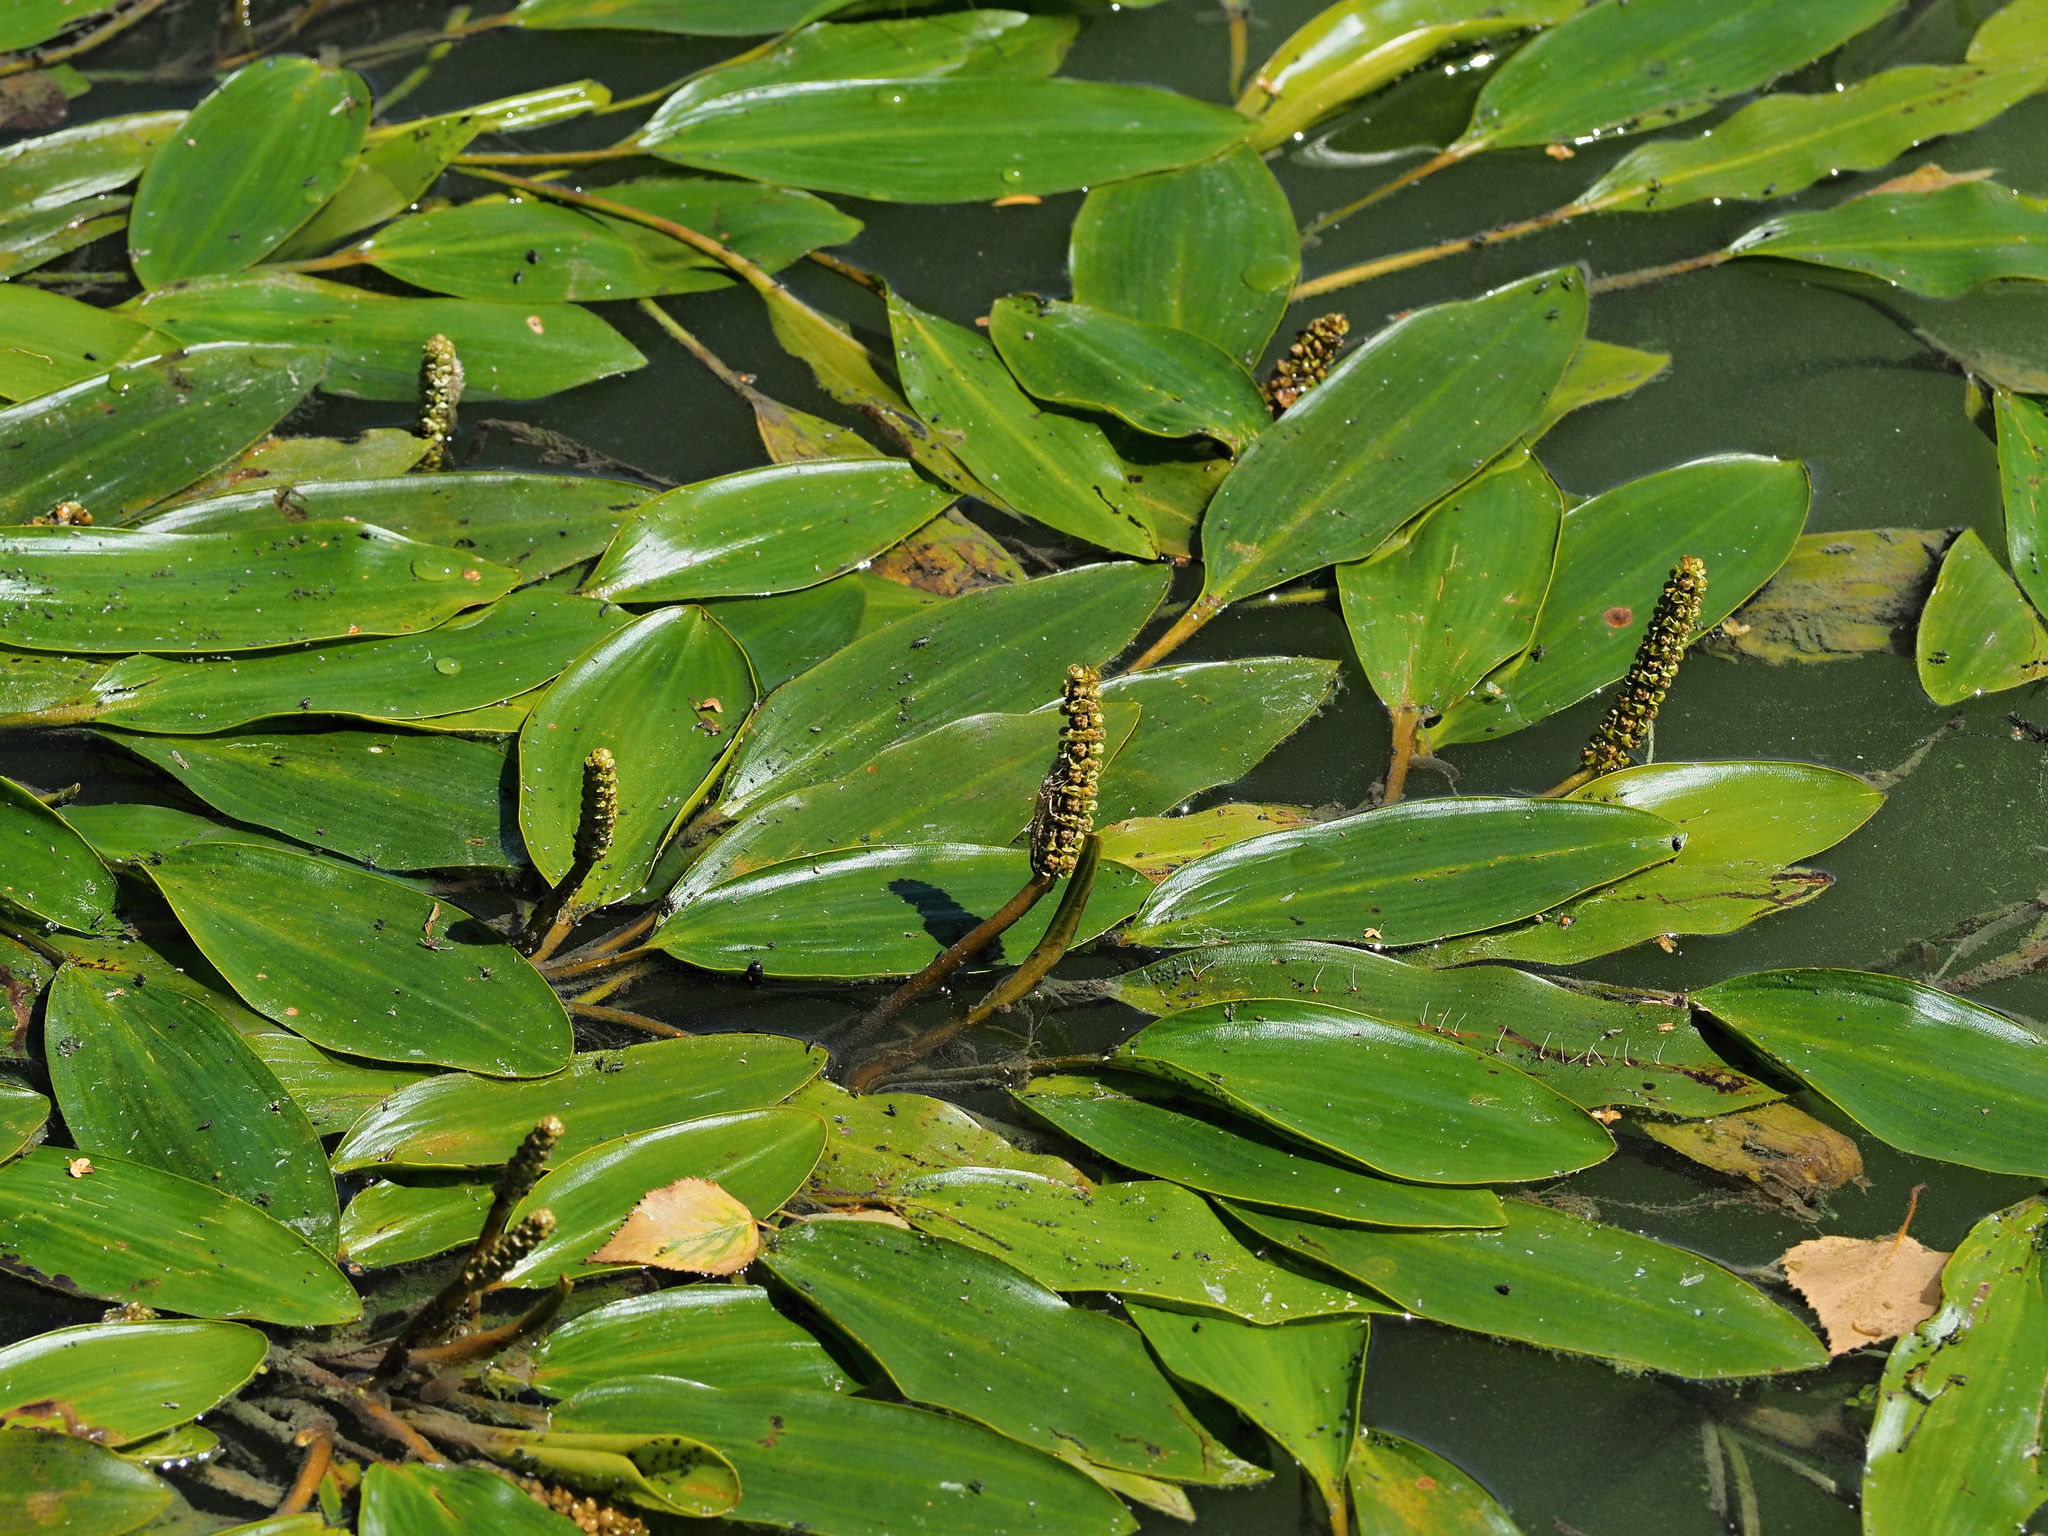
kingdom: Plantae
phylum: Tracheophyta
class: Liliopsida
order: Alismatales
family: Potamogetonaceae
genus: Potamogeton
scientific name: Potamogeton nodosus
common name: Loddon pondweed
